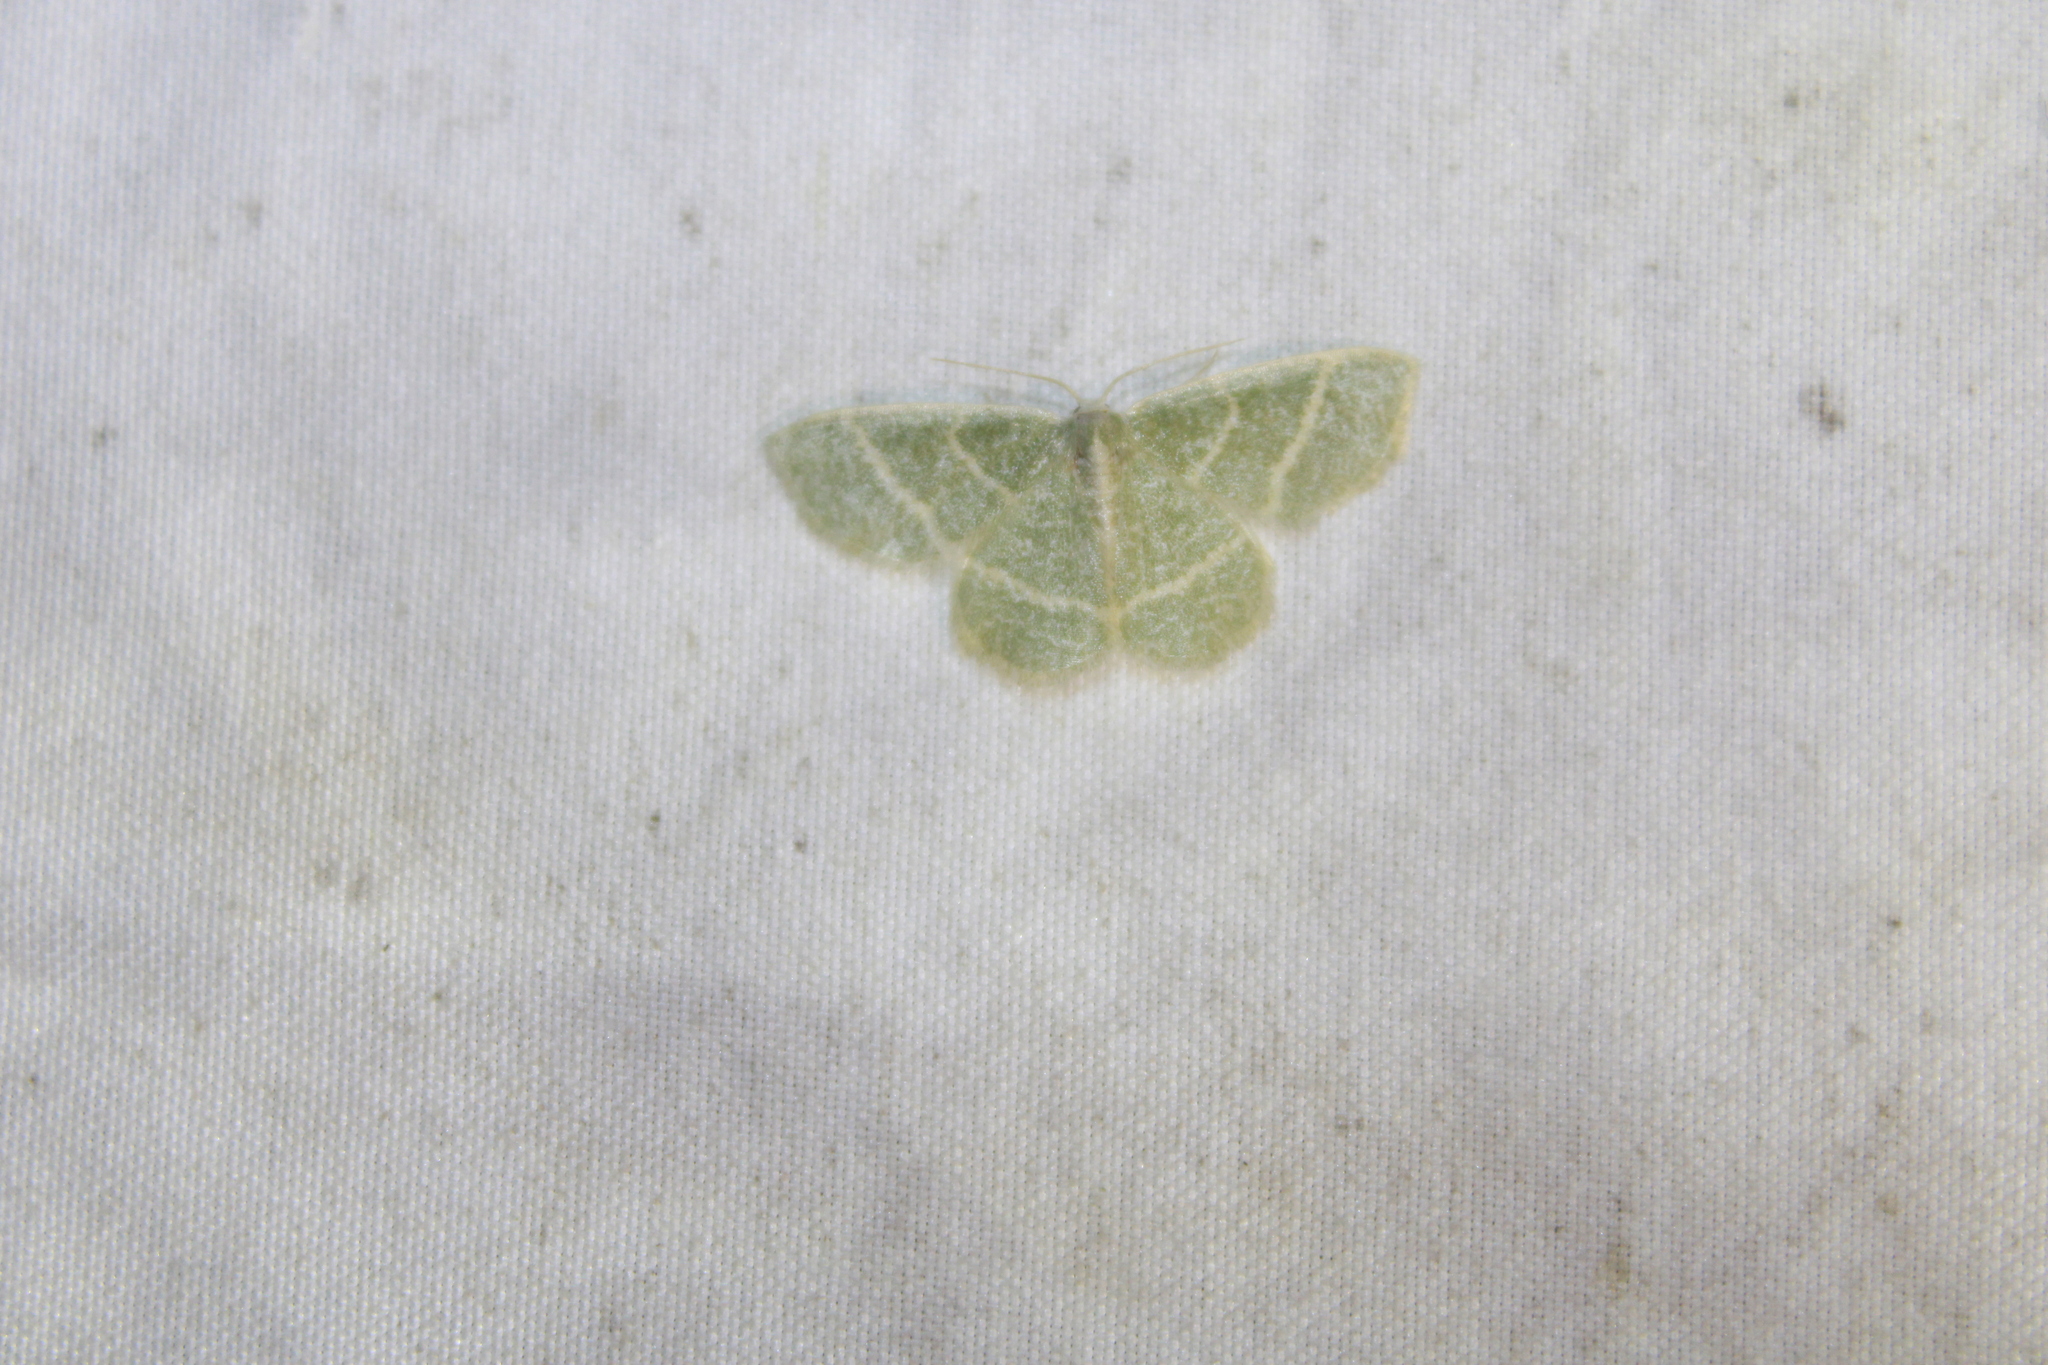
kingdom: Animalia
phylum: Arthropoda
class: Insecta
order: Lepidoptera
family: Geometridae
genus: Chlorochlamys
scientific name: Chlorochlamys chloroleucaria
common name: Blackberry looper
